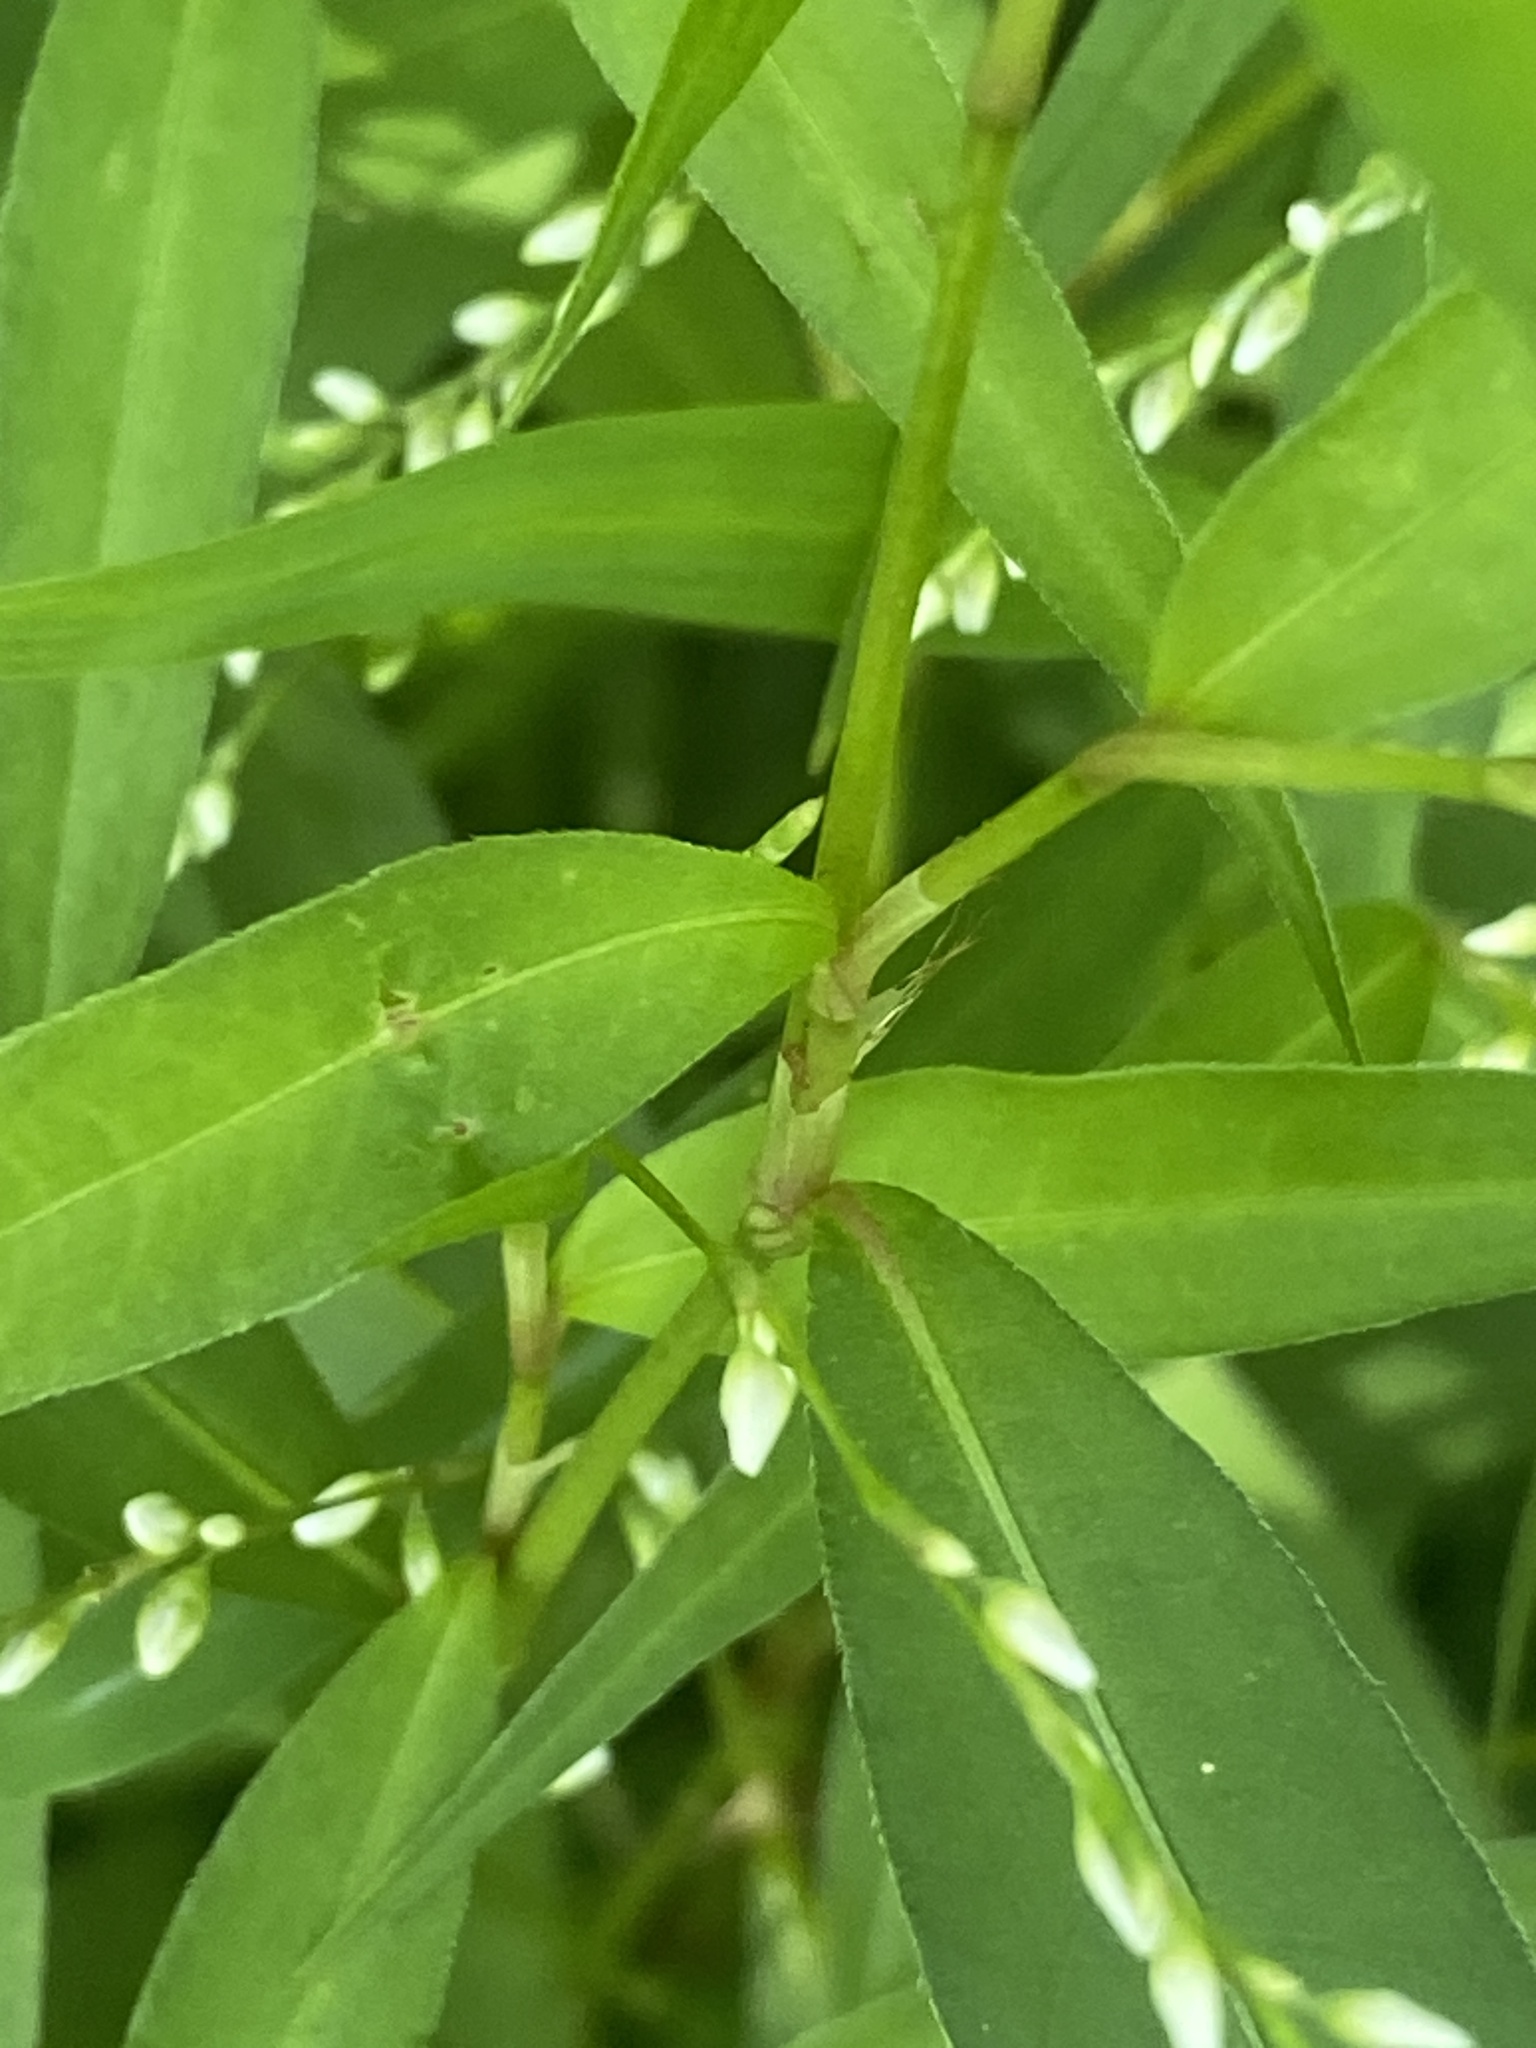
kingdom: Plantae
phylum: Tracheophyta
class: Magnoliopsida
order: Caryophyllales
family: Polygonaceae
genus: Persicaria
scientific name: Persicaria punctata
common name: Dotted smartweed
